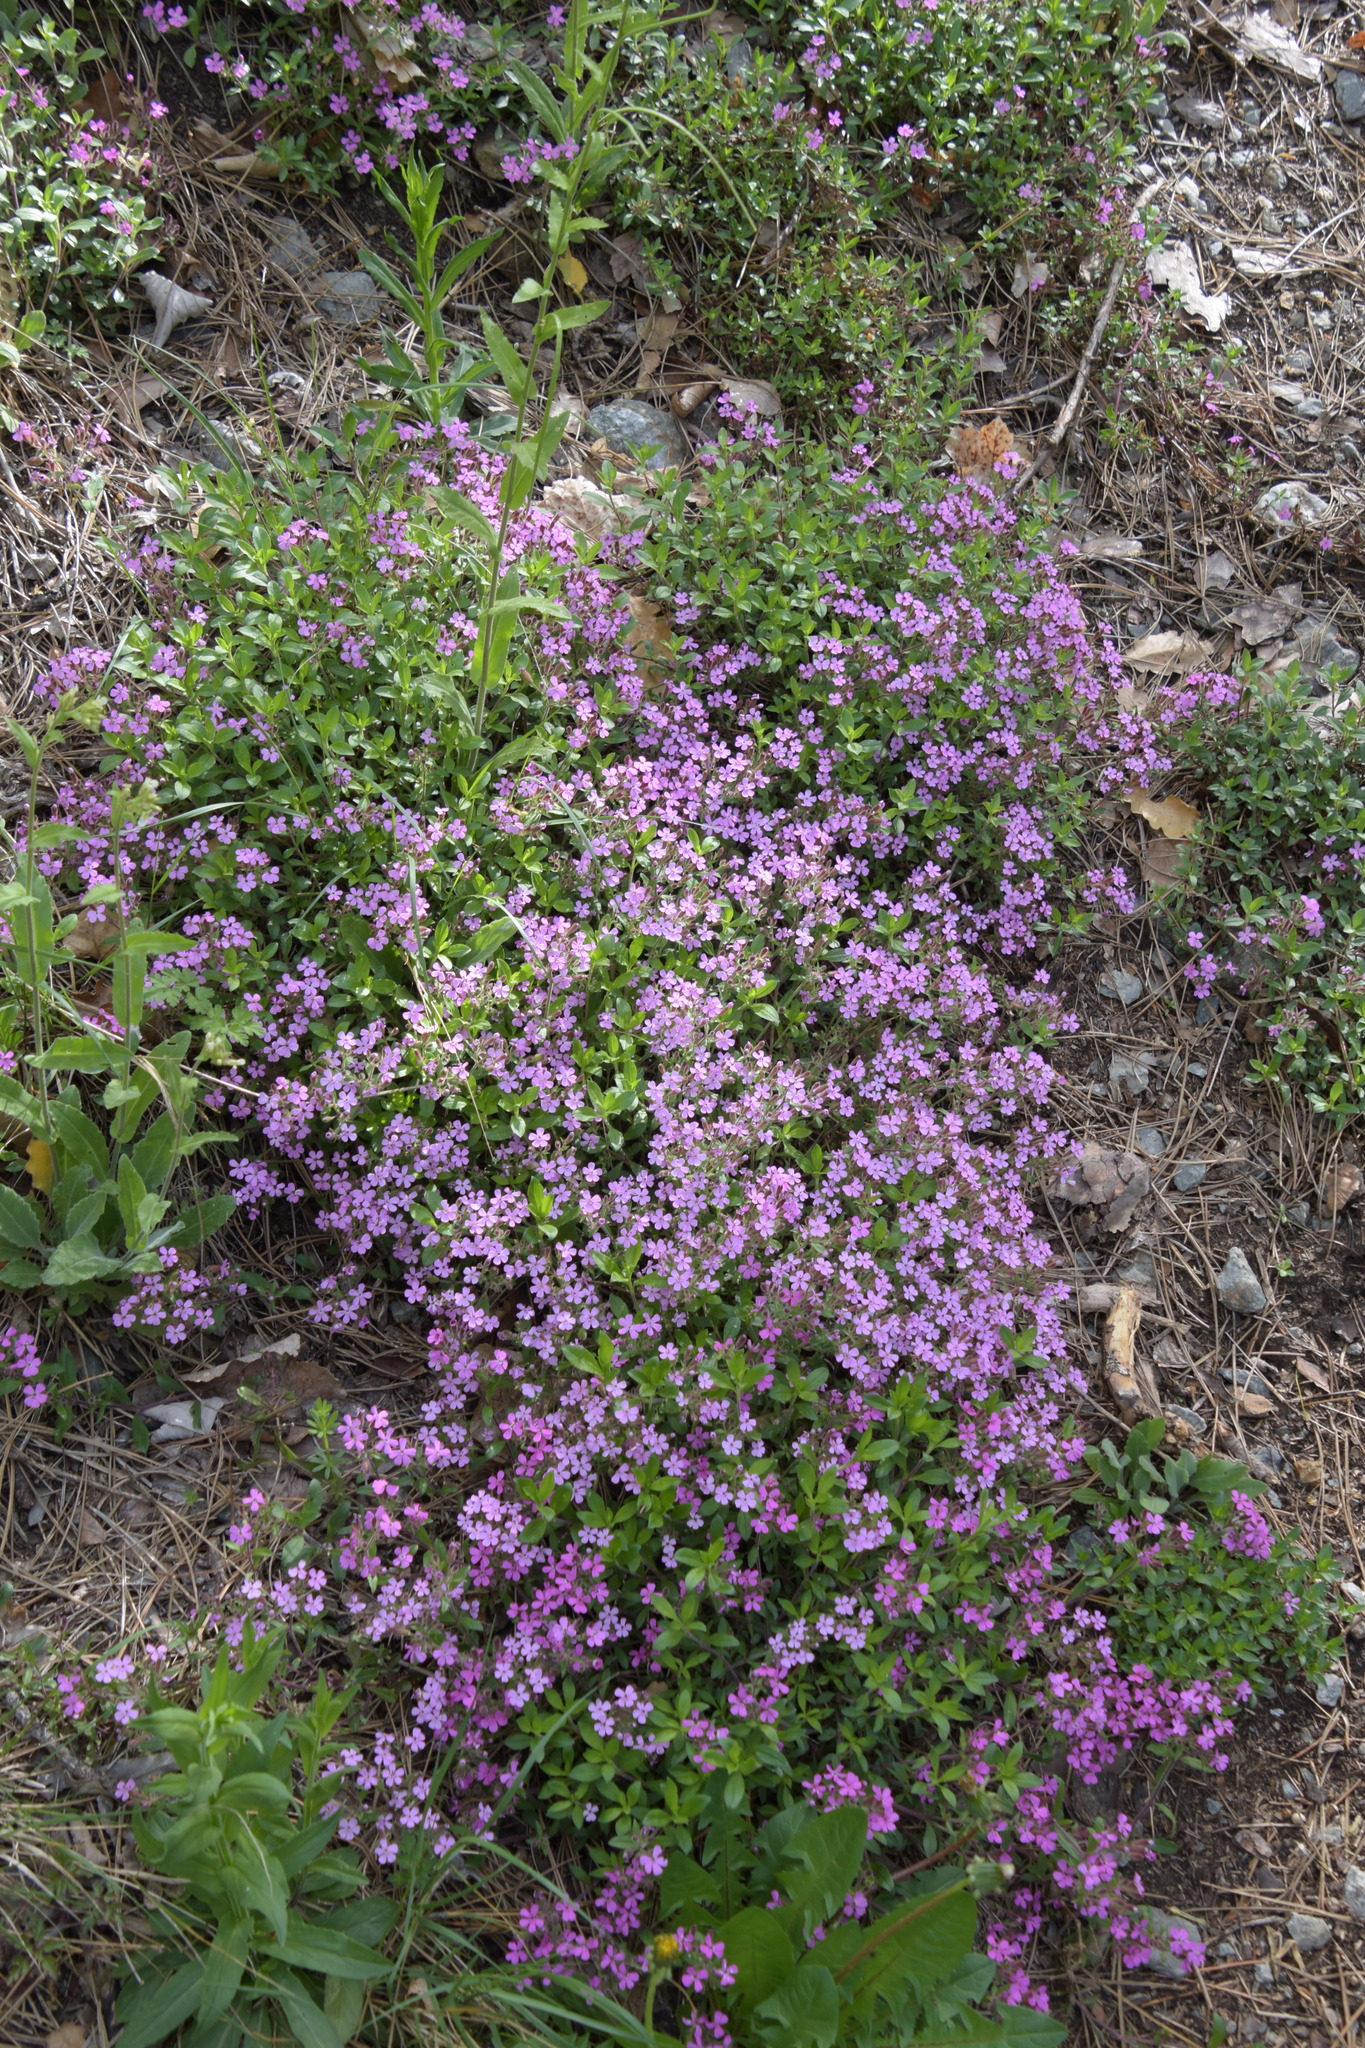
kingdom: Plantae
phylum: Tracheophyta
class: Magnoliopsida
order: Caryophyllales
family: Caryophyllaceae
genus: Saponaria
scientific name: Saponaria ocymoides
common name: Rock soapwort
